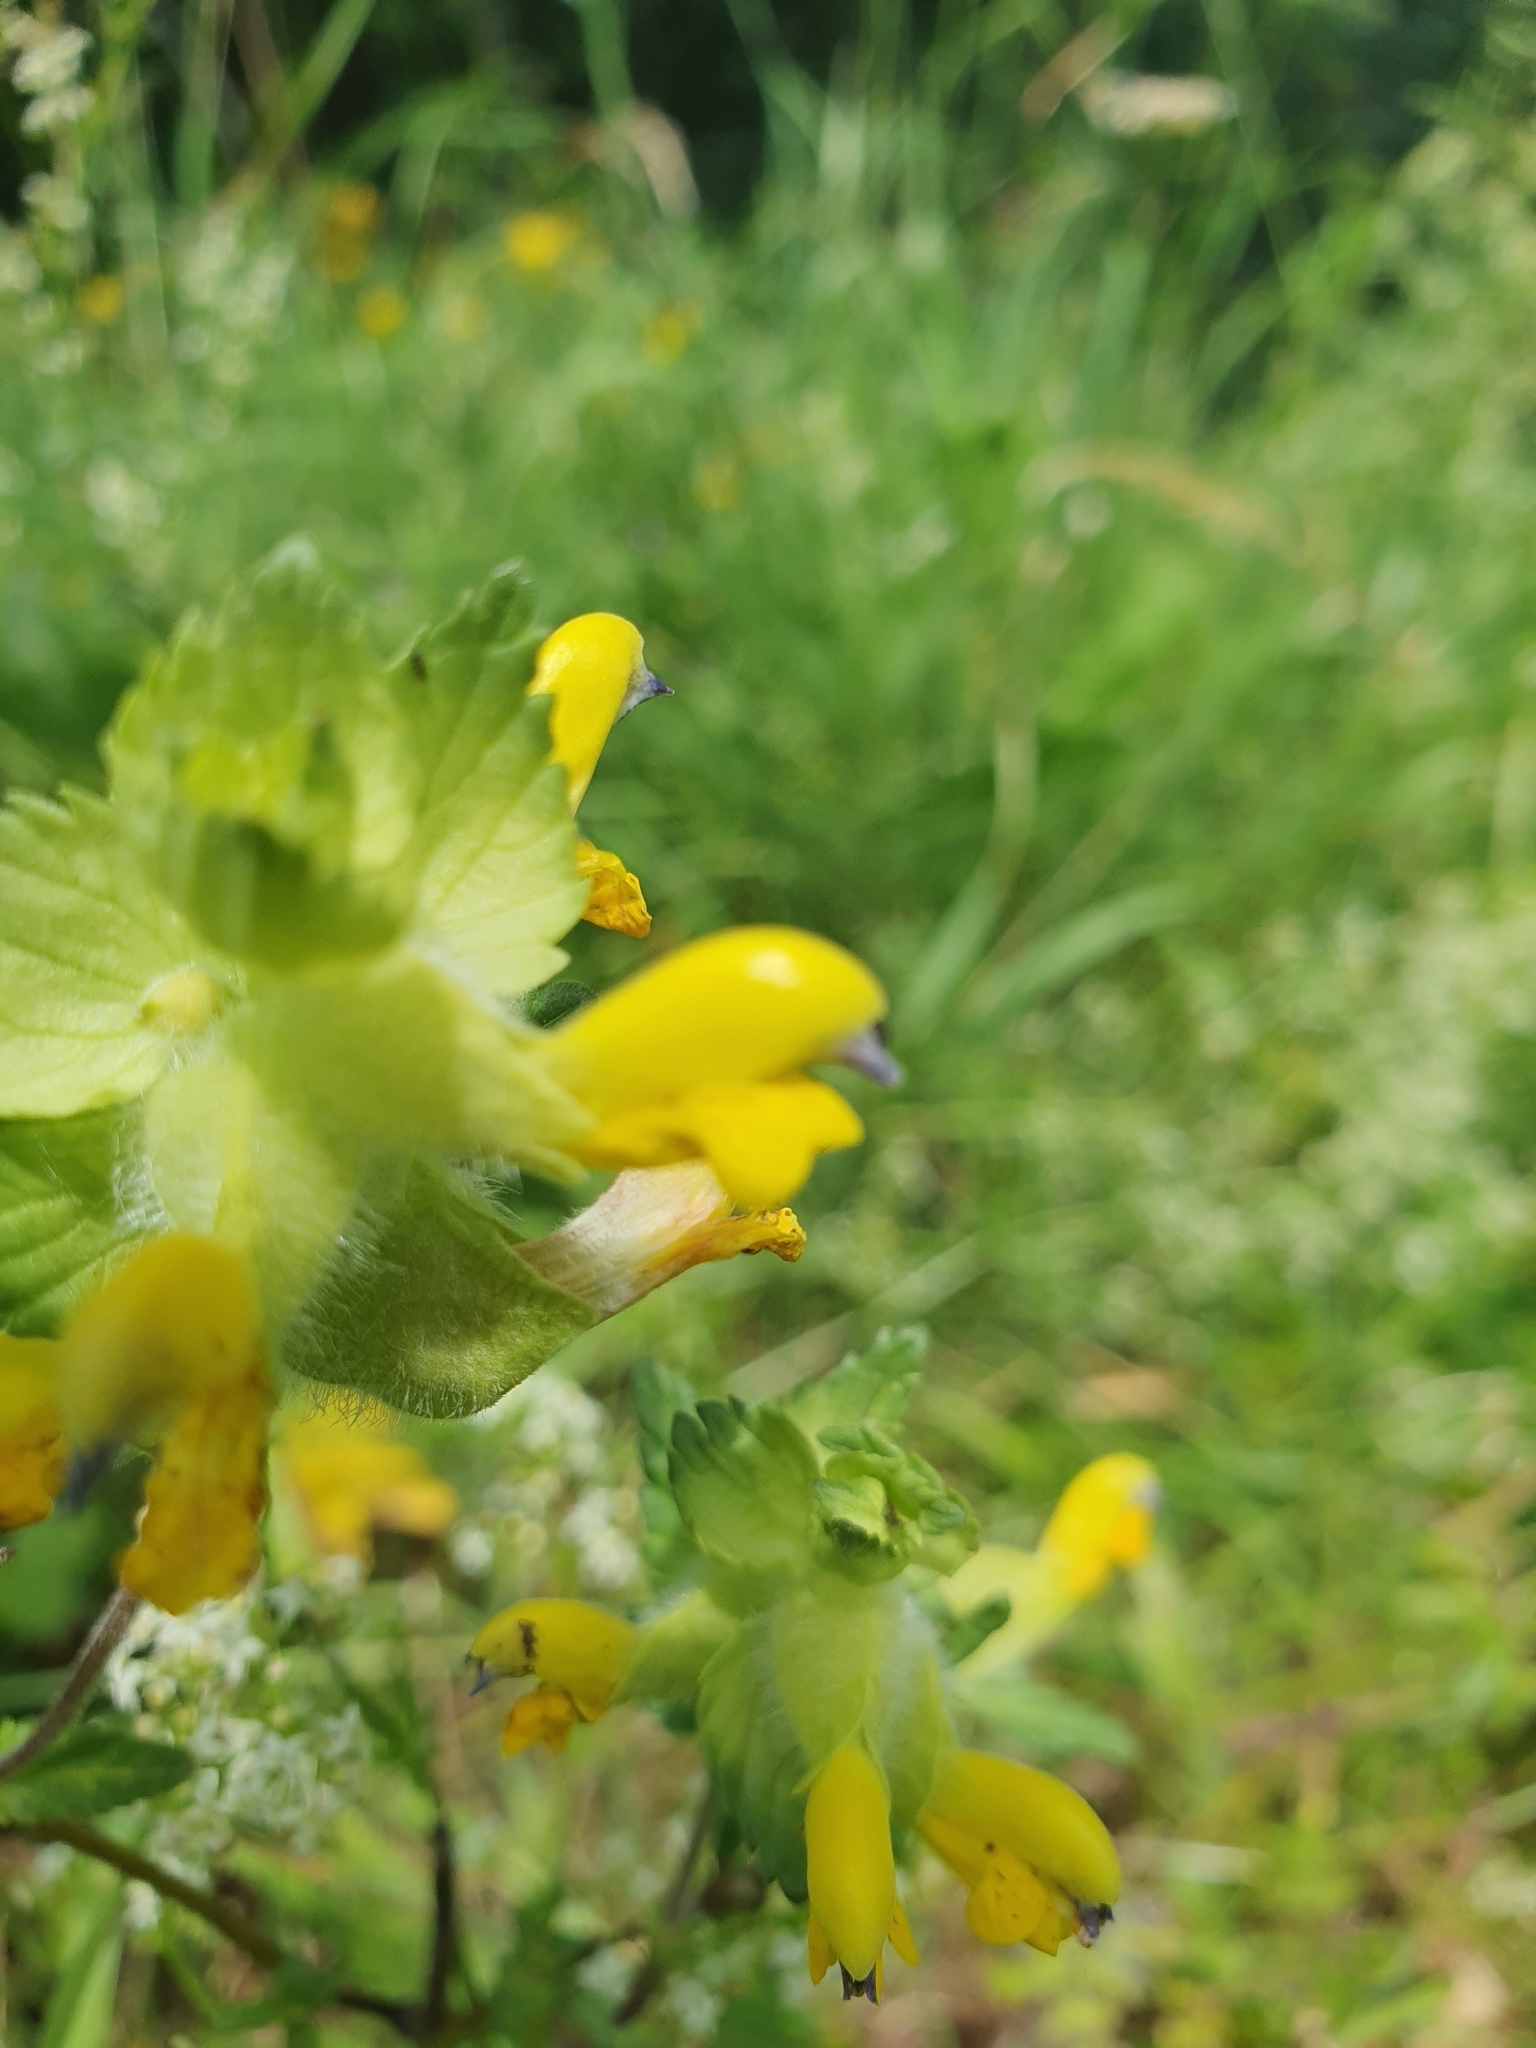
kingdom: Plantae
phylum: Tracheophyta
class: Magnoliopsida
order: Lamiales
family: Orobanchaceae
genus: Rhinanthus
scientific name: Rhinanthus alectorolophus
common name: Greater yellow-rattle
